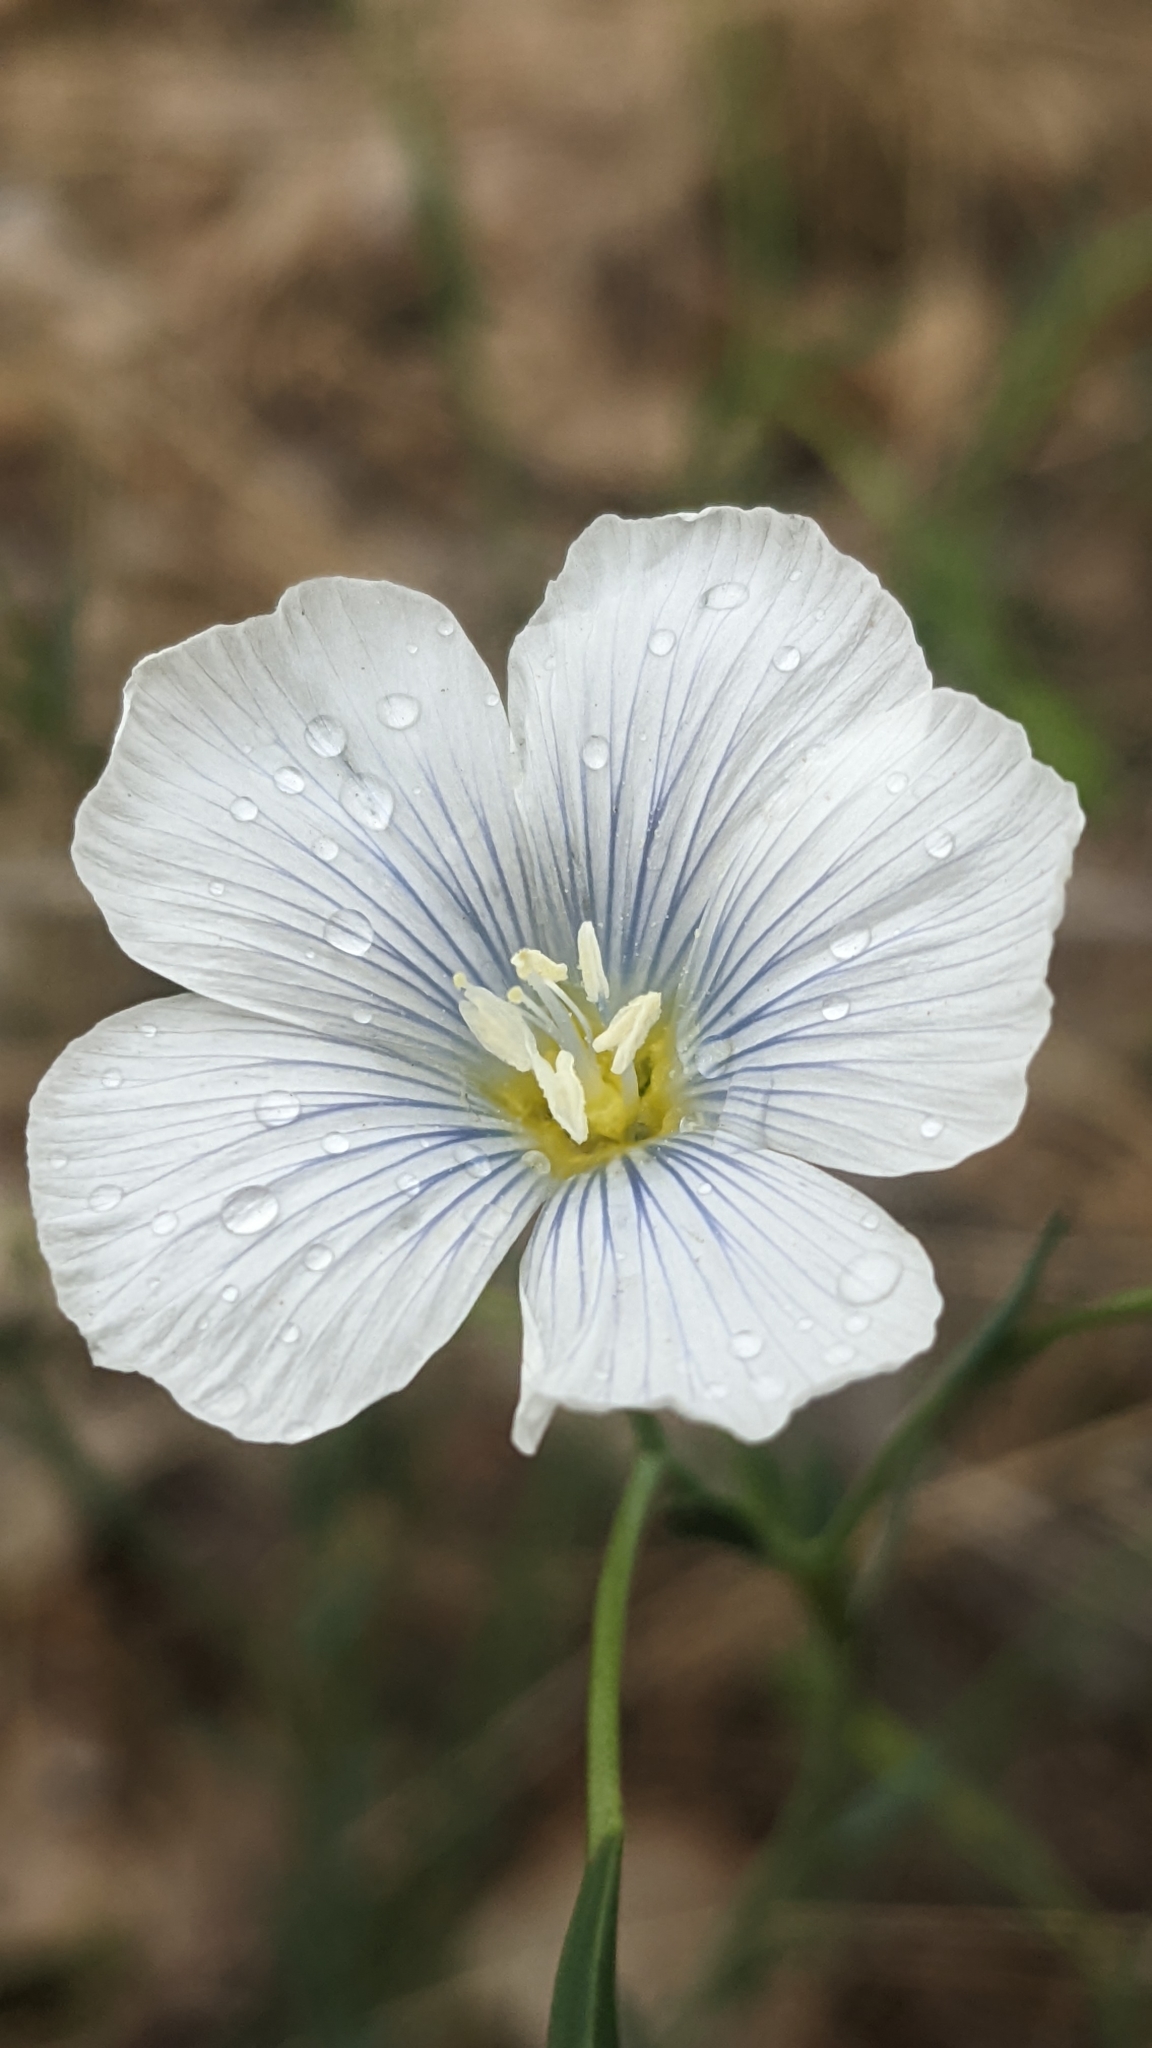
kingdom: Plantae
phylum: Tracheophyta
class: Magnoliopsida
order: Malpighiales
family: Linaceae
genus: Linum
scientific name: Linum lewisii
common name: Prairie flax
